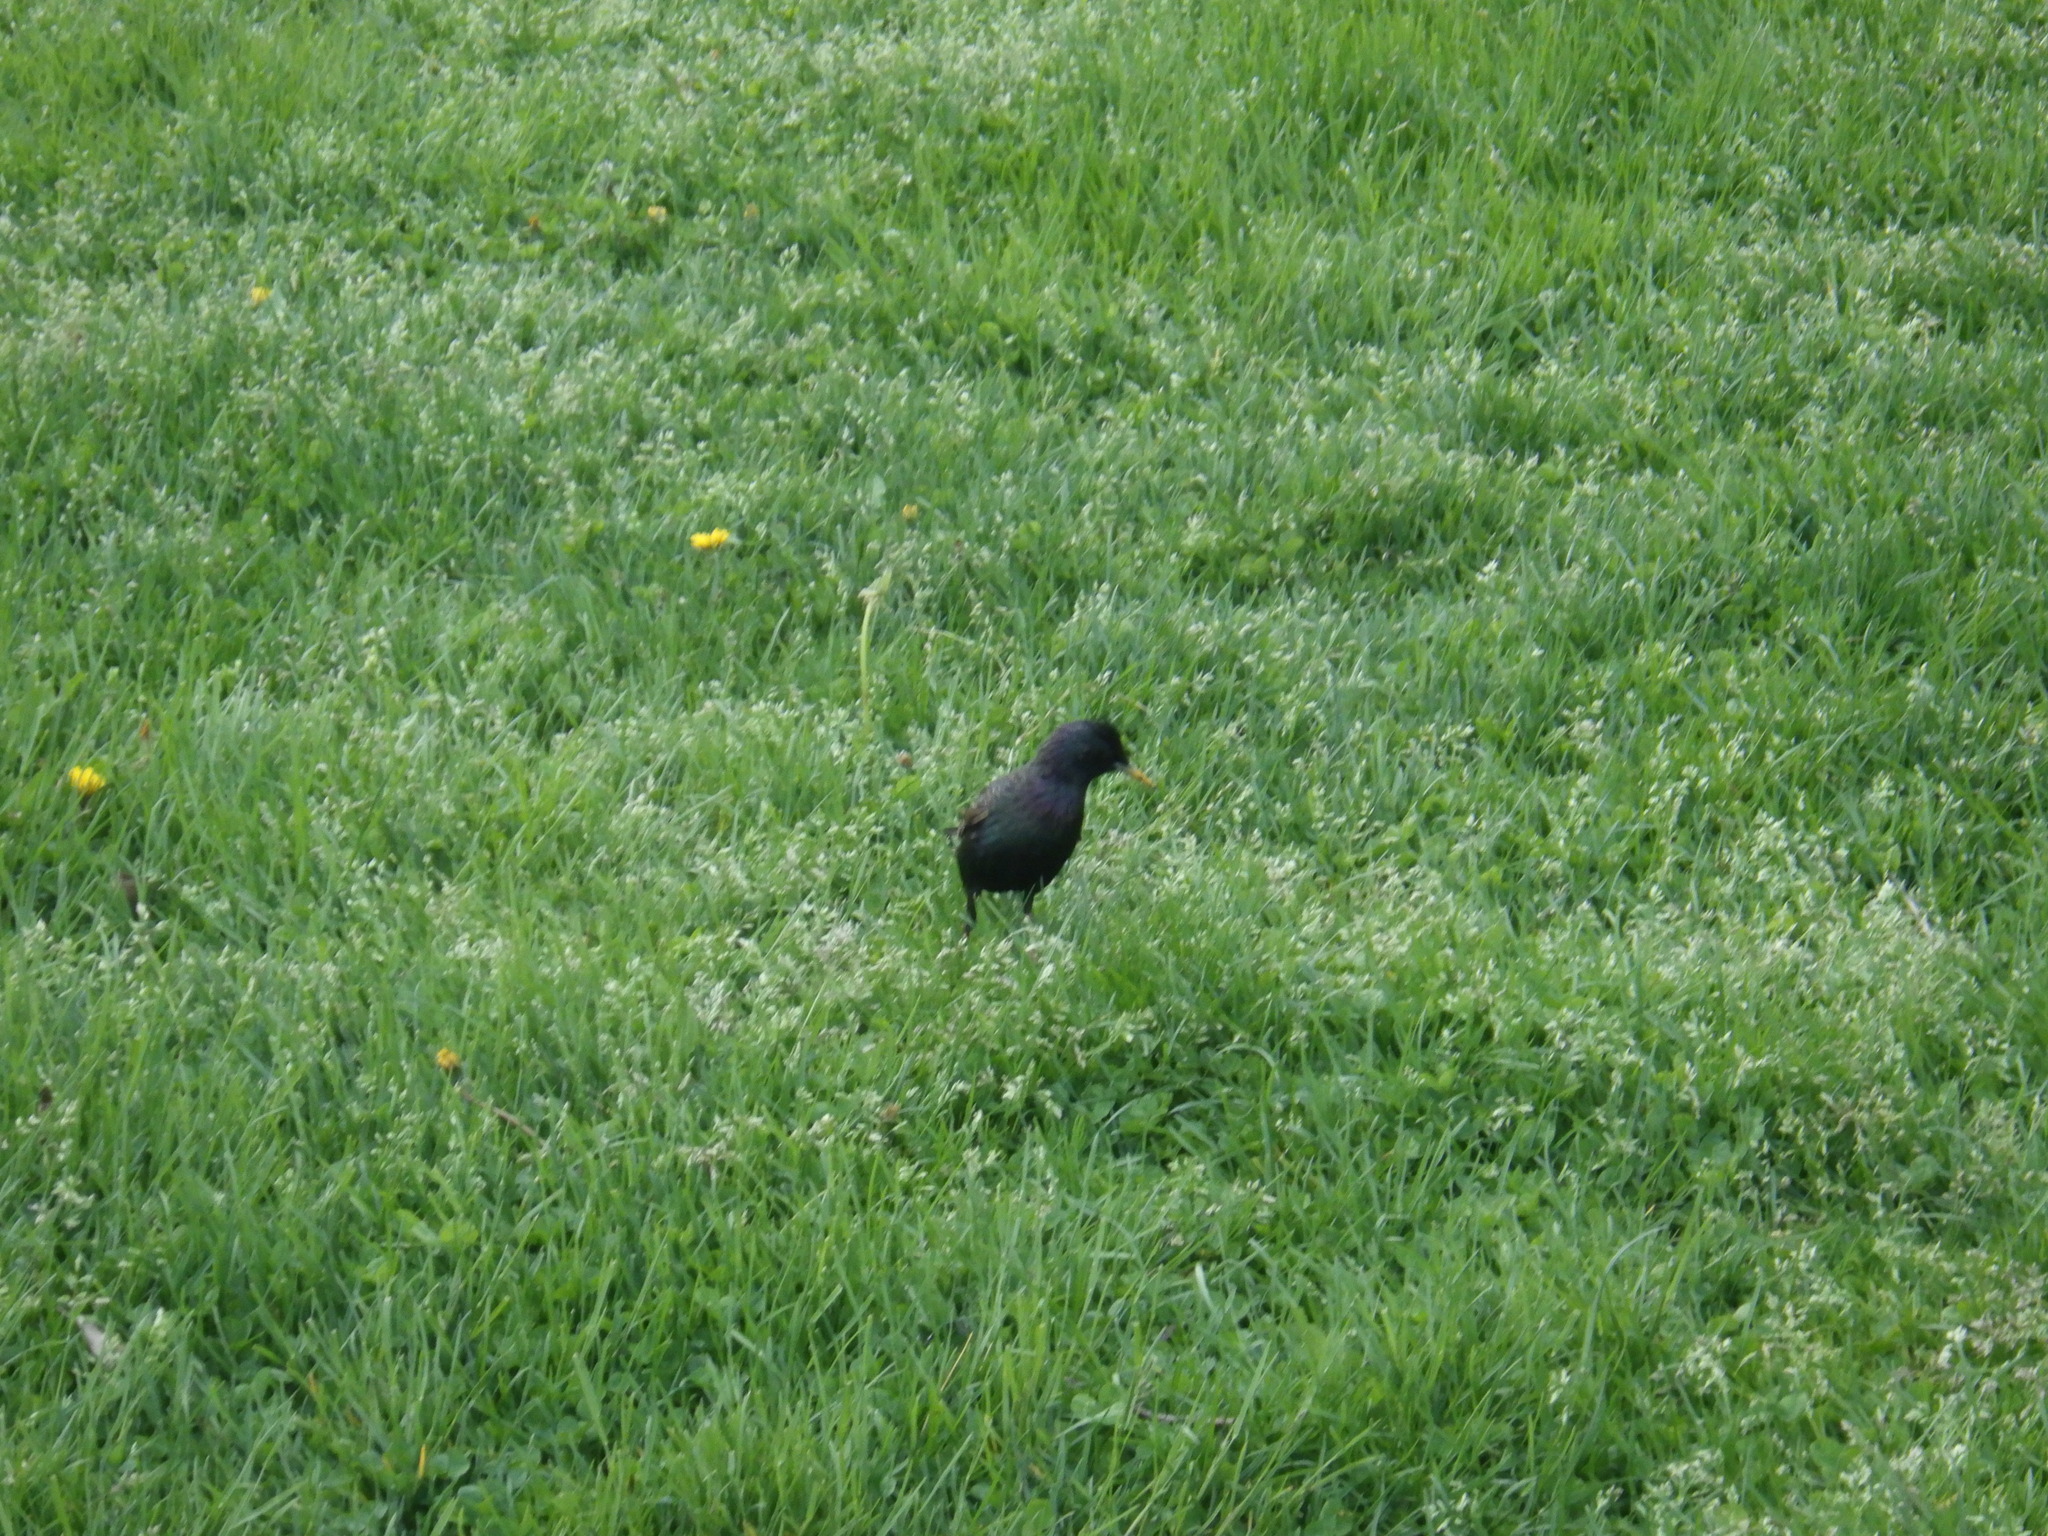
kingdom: Animalia
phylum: Chordata
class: Aves
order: Passeriformes
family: Sturnidae
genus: Sturnus
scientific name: Sturnus vulgaris
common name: Common starling
